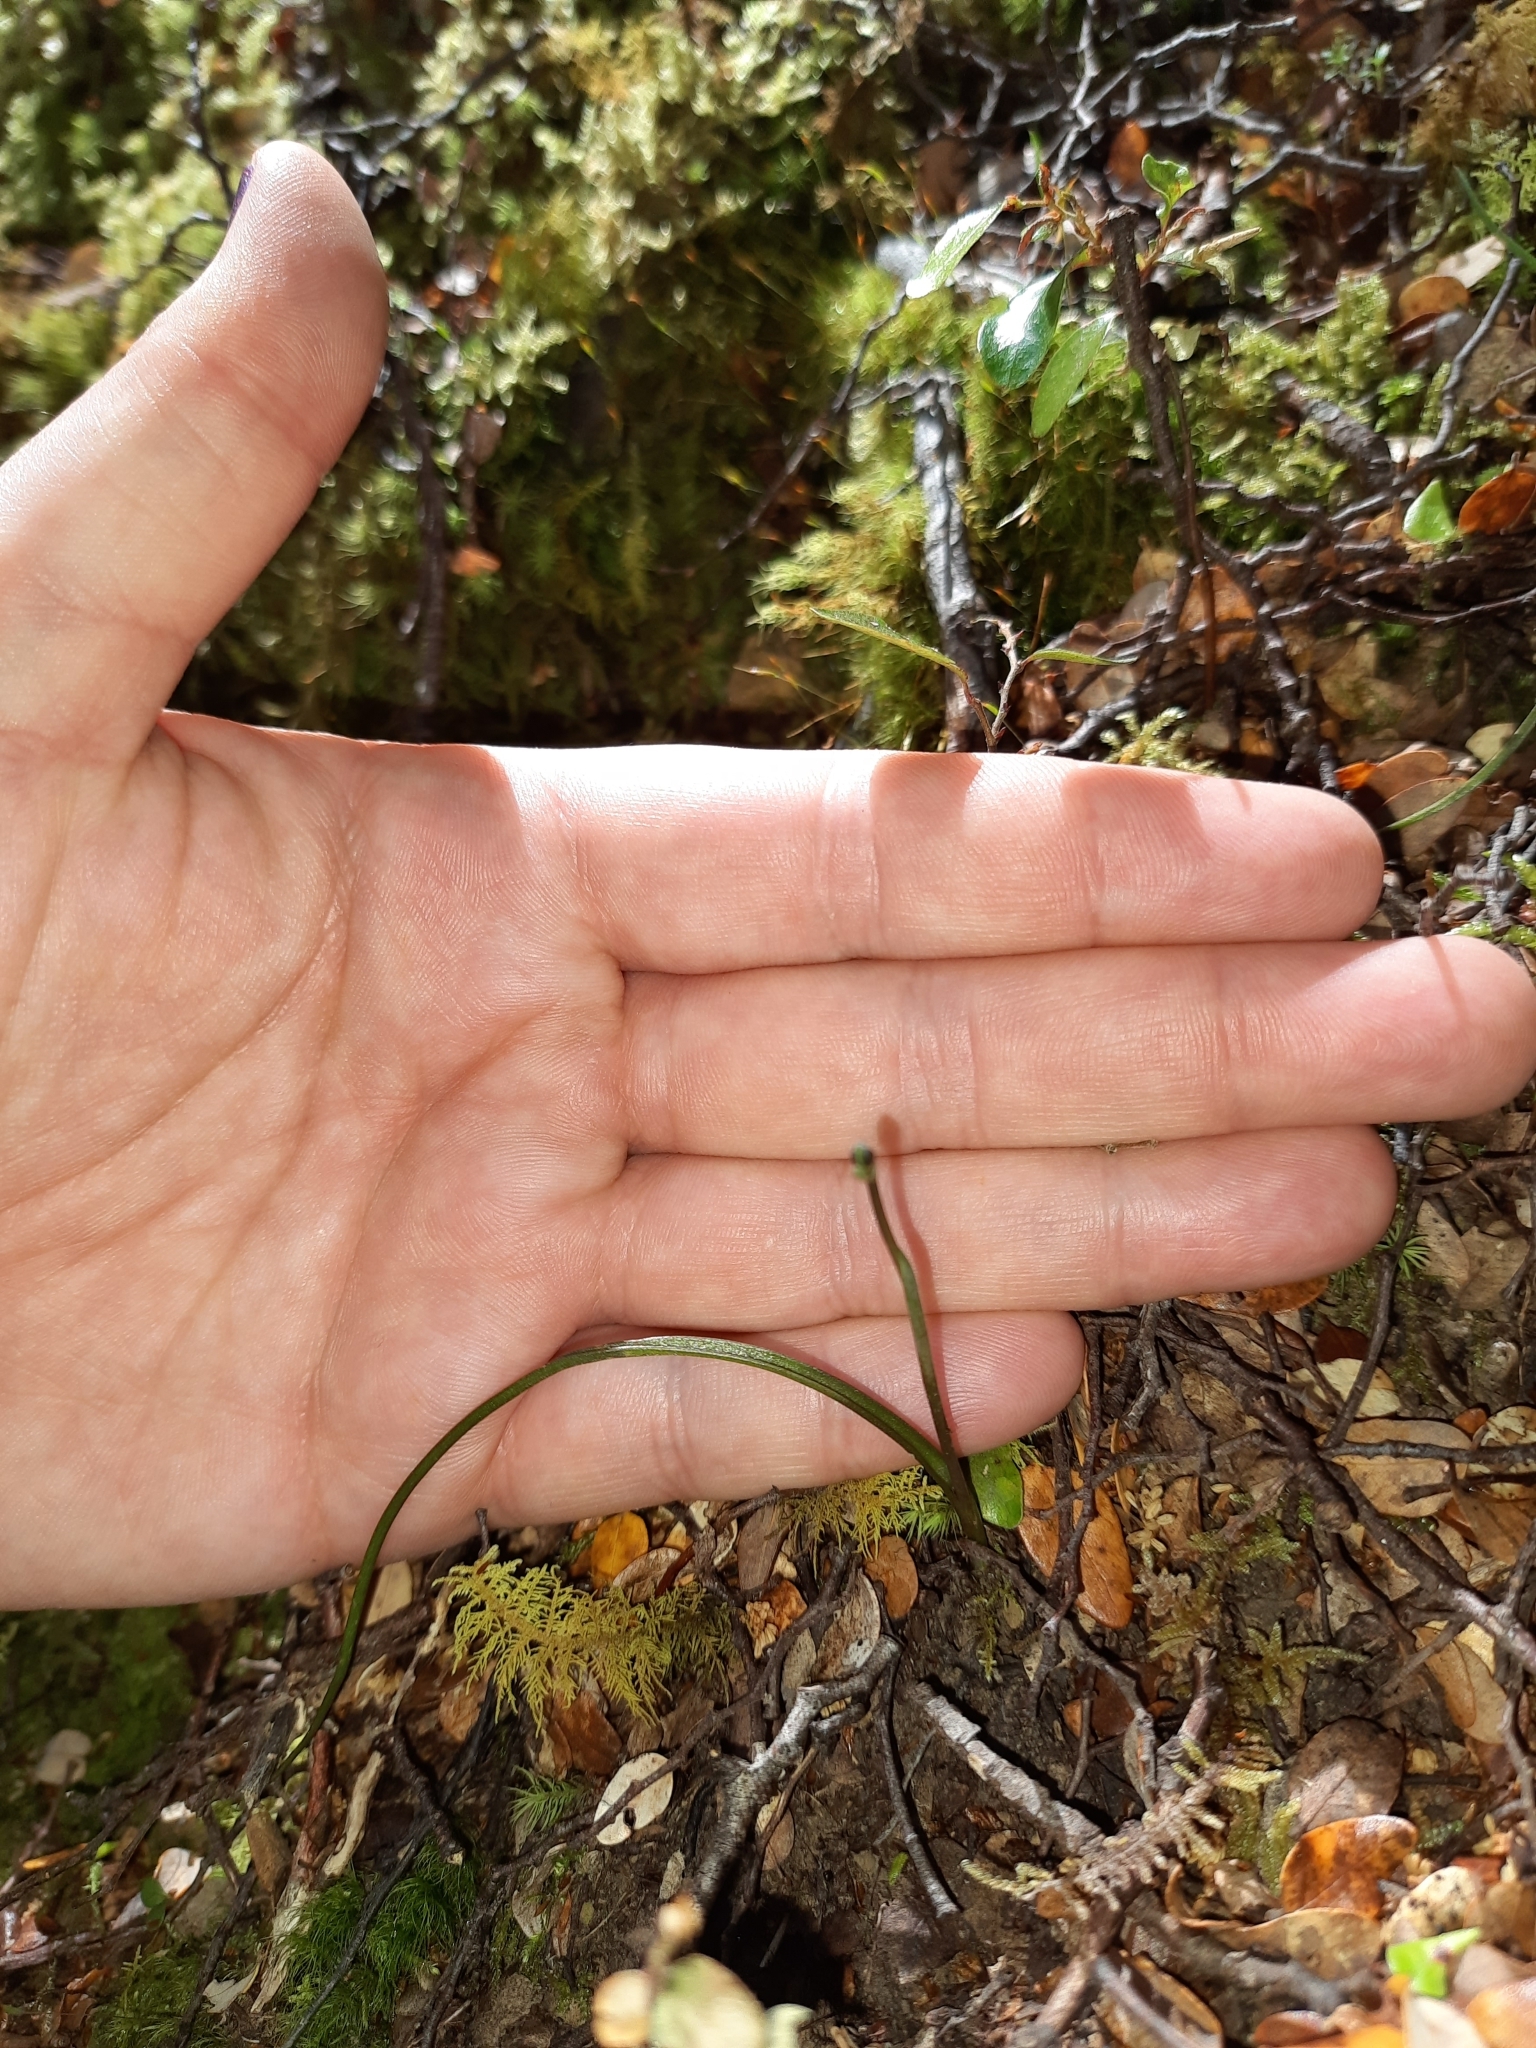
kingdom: Plantae
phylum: Tracheophyta
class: Liliopsida
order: Asparagales
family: Orchidaceae
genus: Thelymitra
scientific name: Thelymitra longifolia
